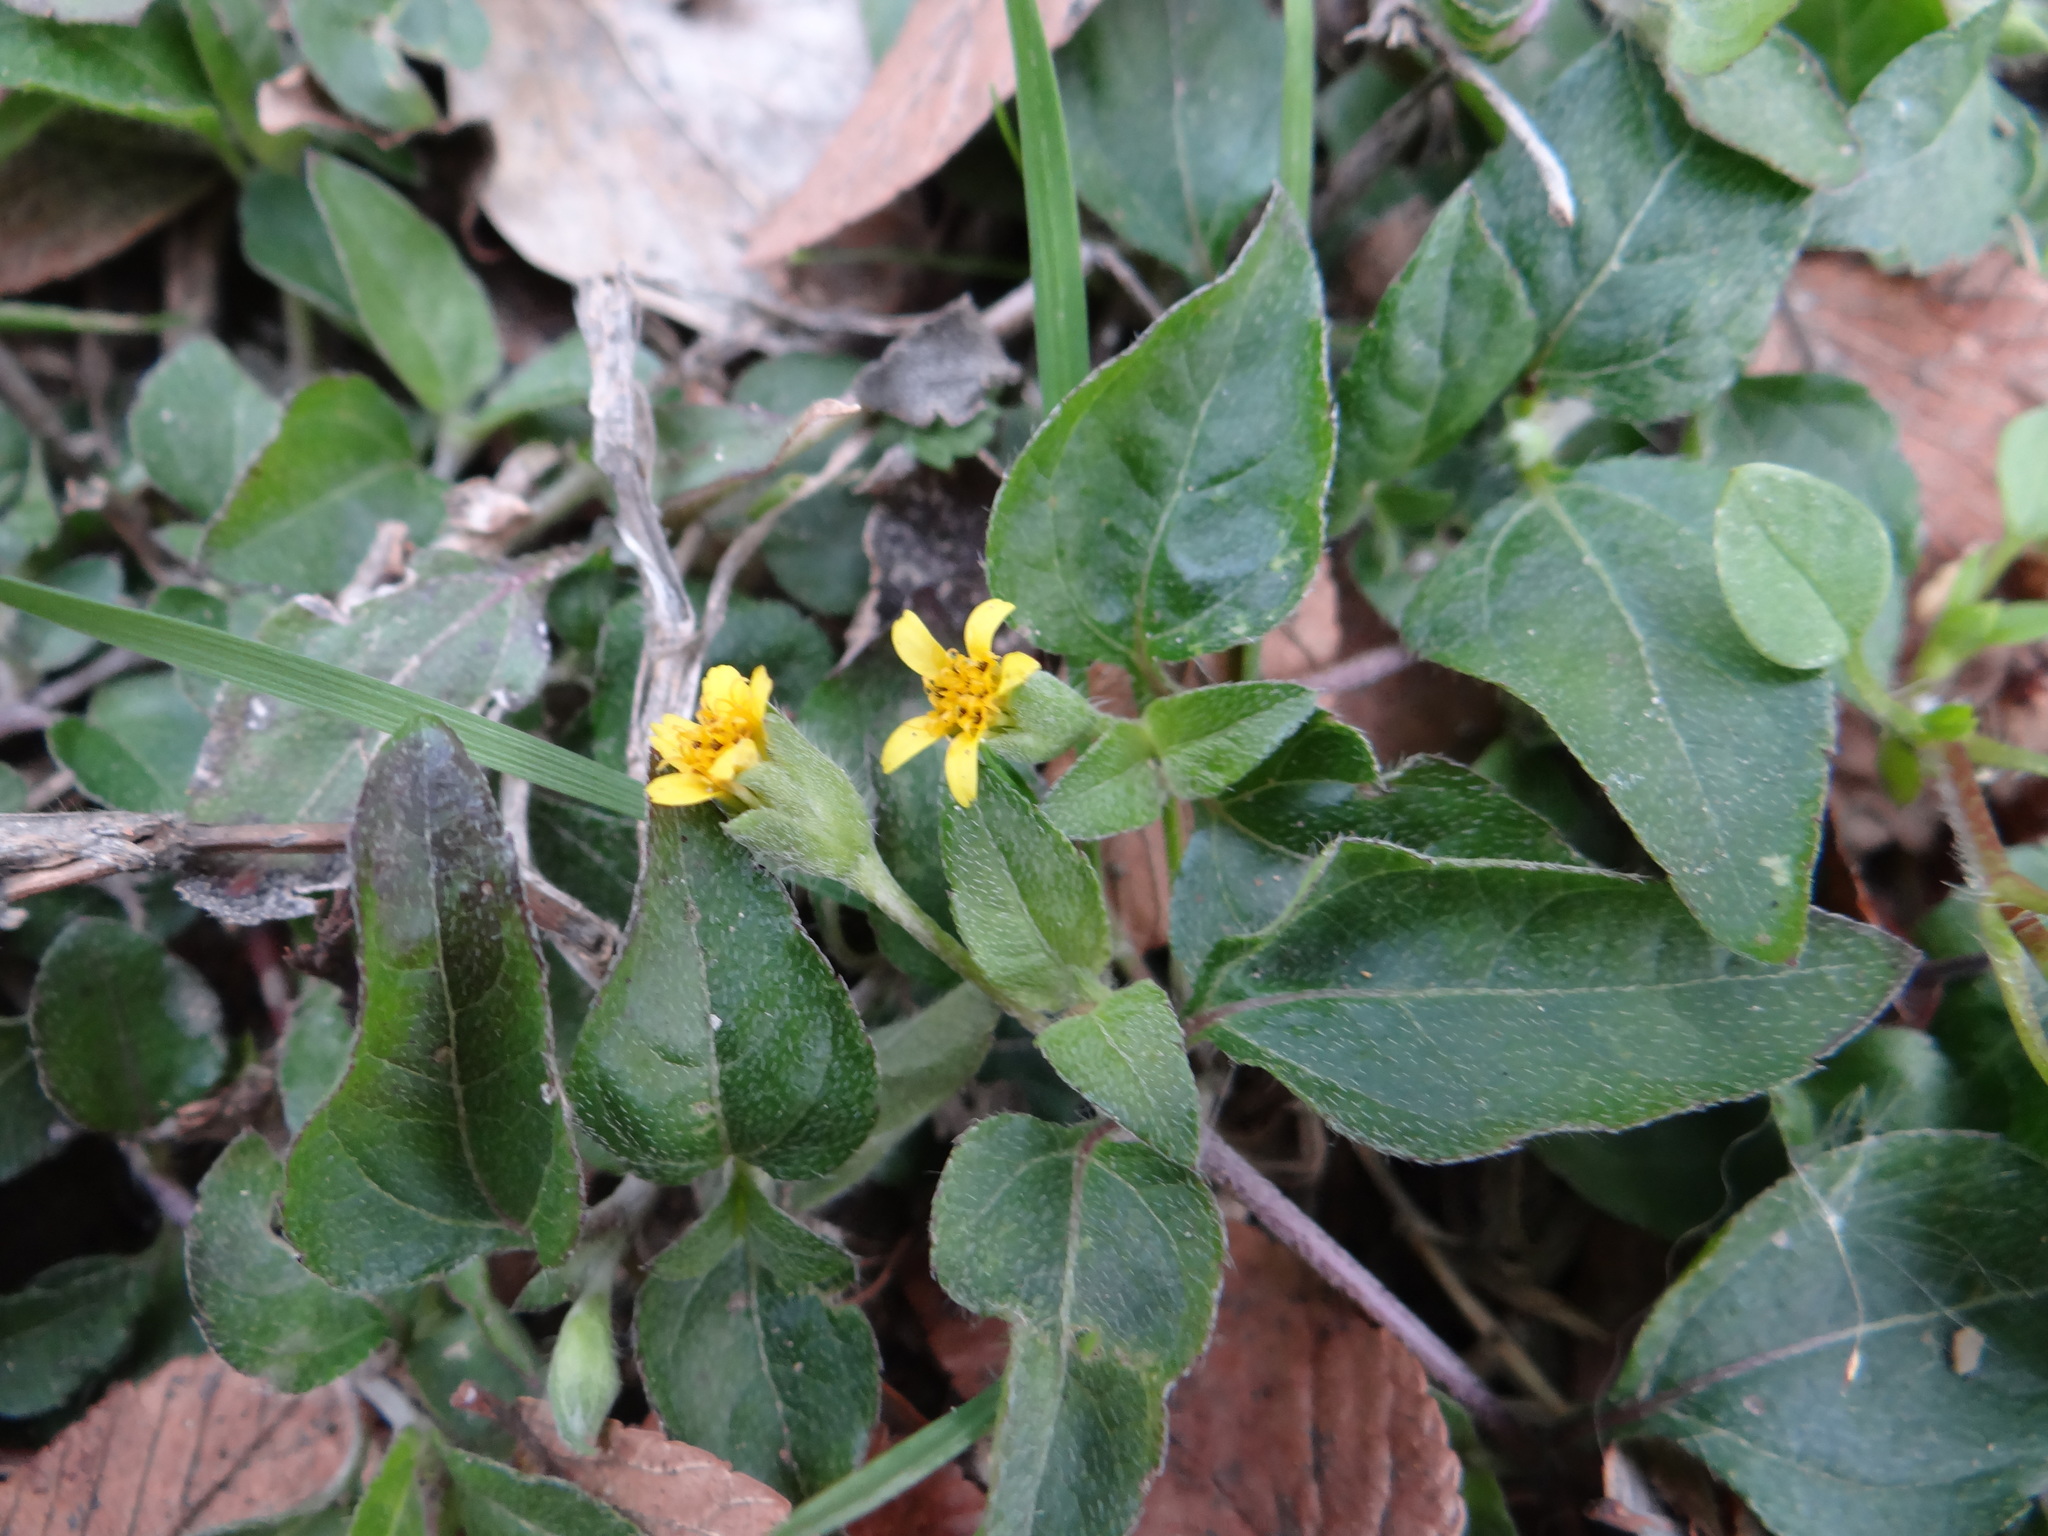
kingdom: Plantae
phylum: Tracheophyta
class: Magnoliopsida
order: Asterales
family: Asteraceae
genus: Calyptocarpus
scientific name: Calyptocarpus vialis
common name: Straggler daisy
